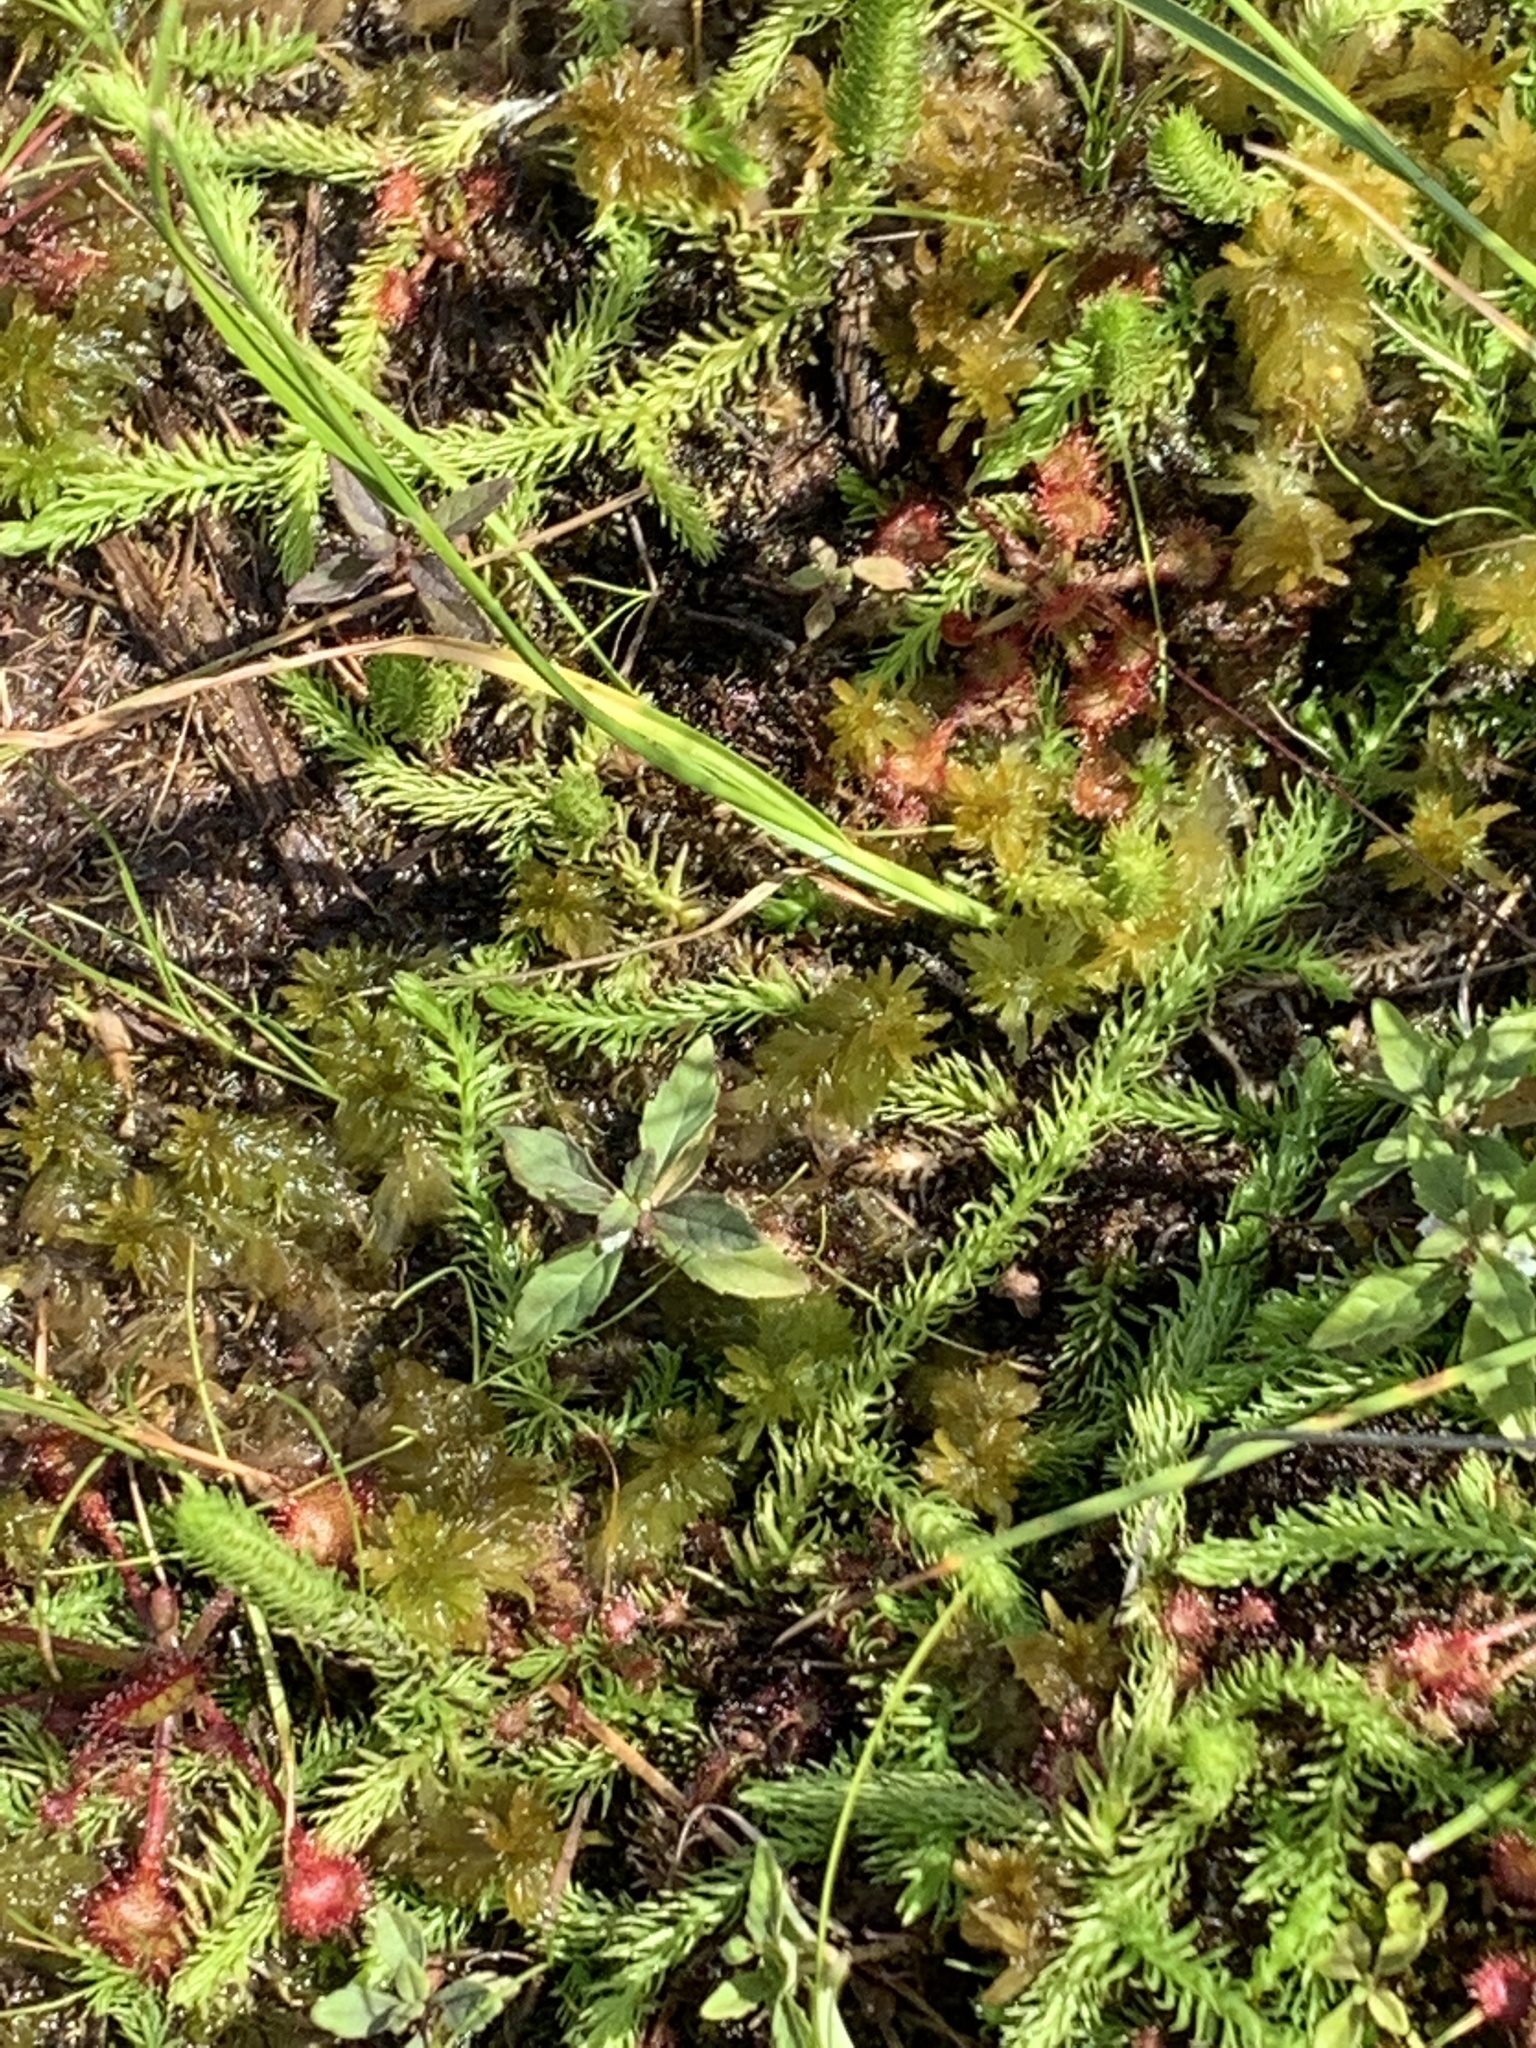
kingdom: Plantae
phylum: Tracheophyta
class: Lycopodiopsida
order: Lycopodiales
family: Lycopodiaceae
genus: Lycopodiella
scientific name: Lycopodiella inundata
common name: Marsh clubmoss
